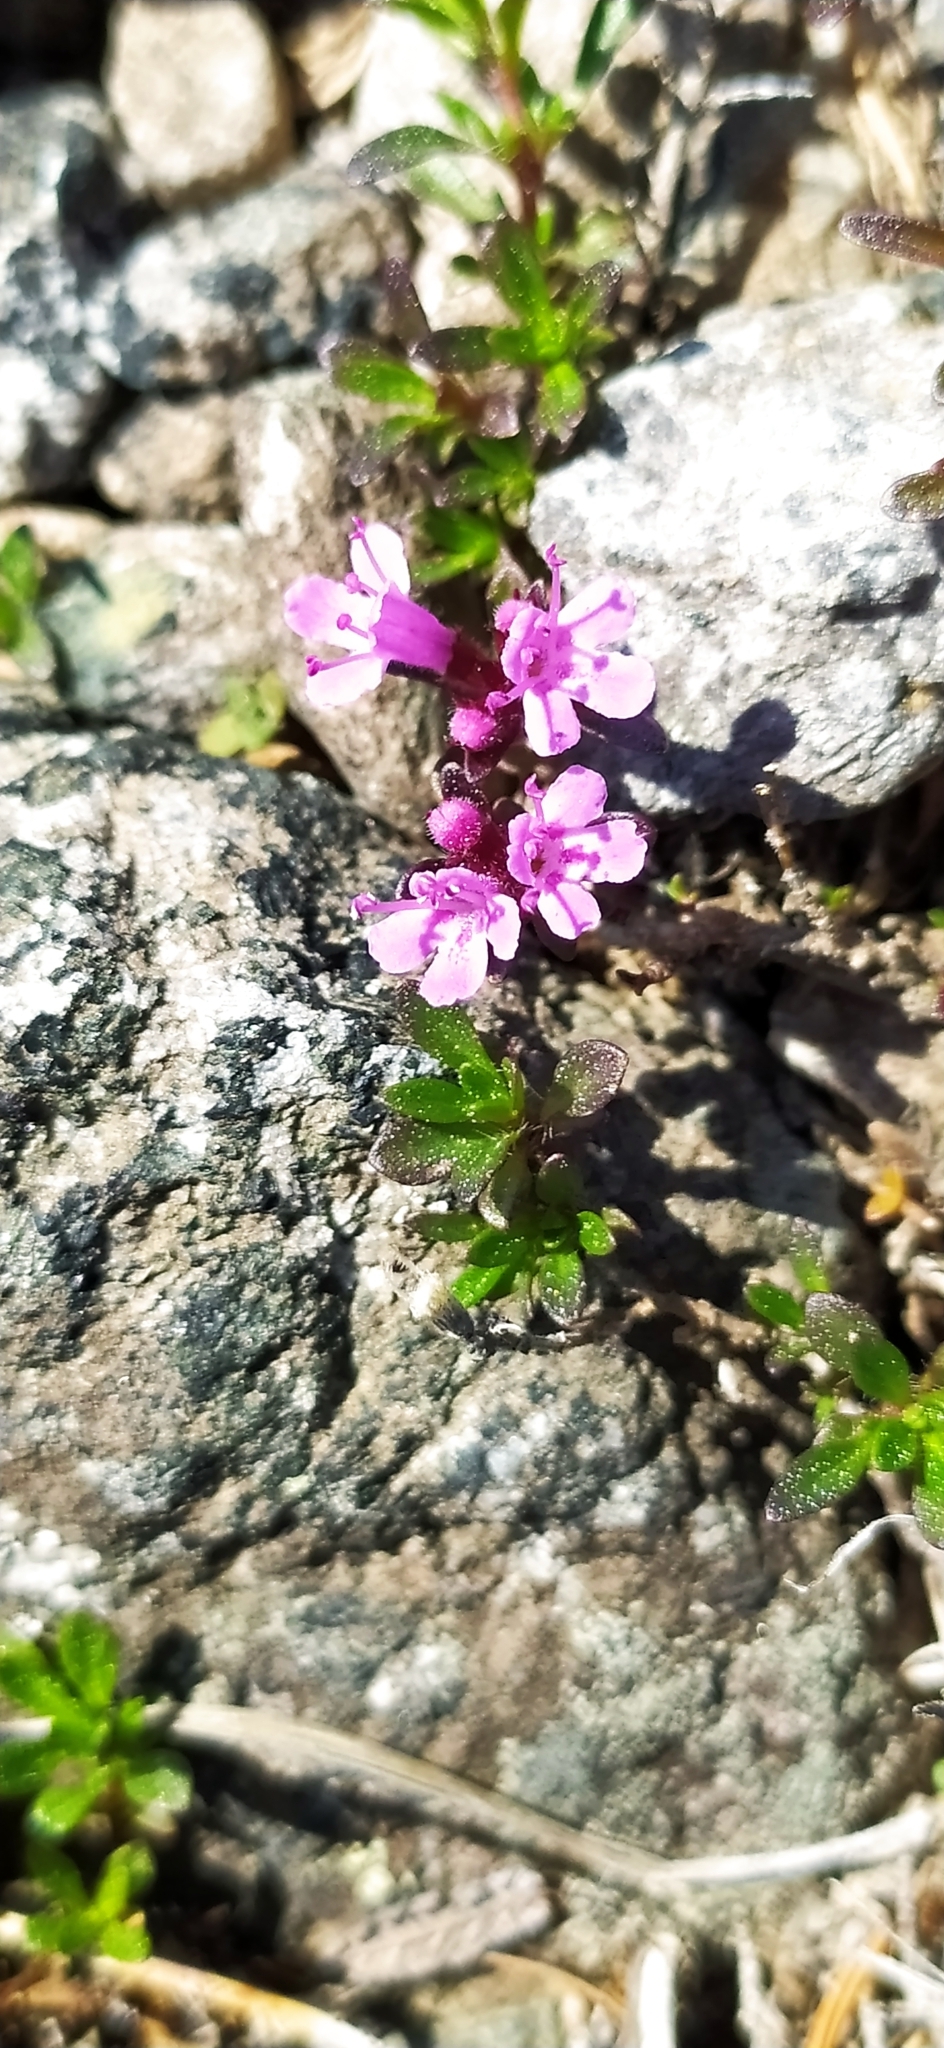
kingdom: Plantae
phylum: Tracheophyta
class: Magnoliopsida
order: Lamiales
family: Lamiaceae
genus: Thymus
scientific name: Thymus glabricaulis
